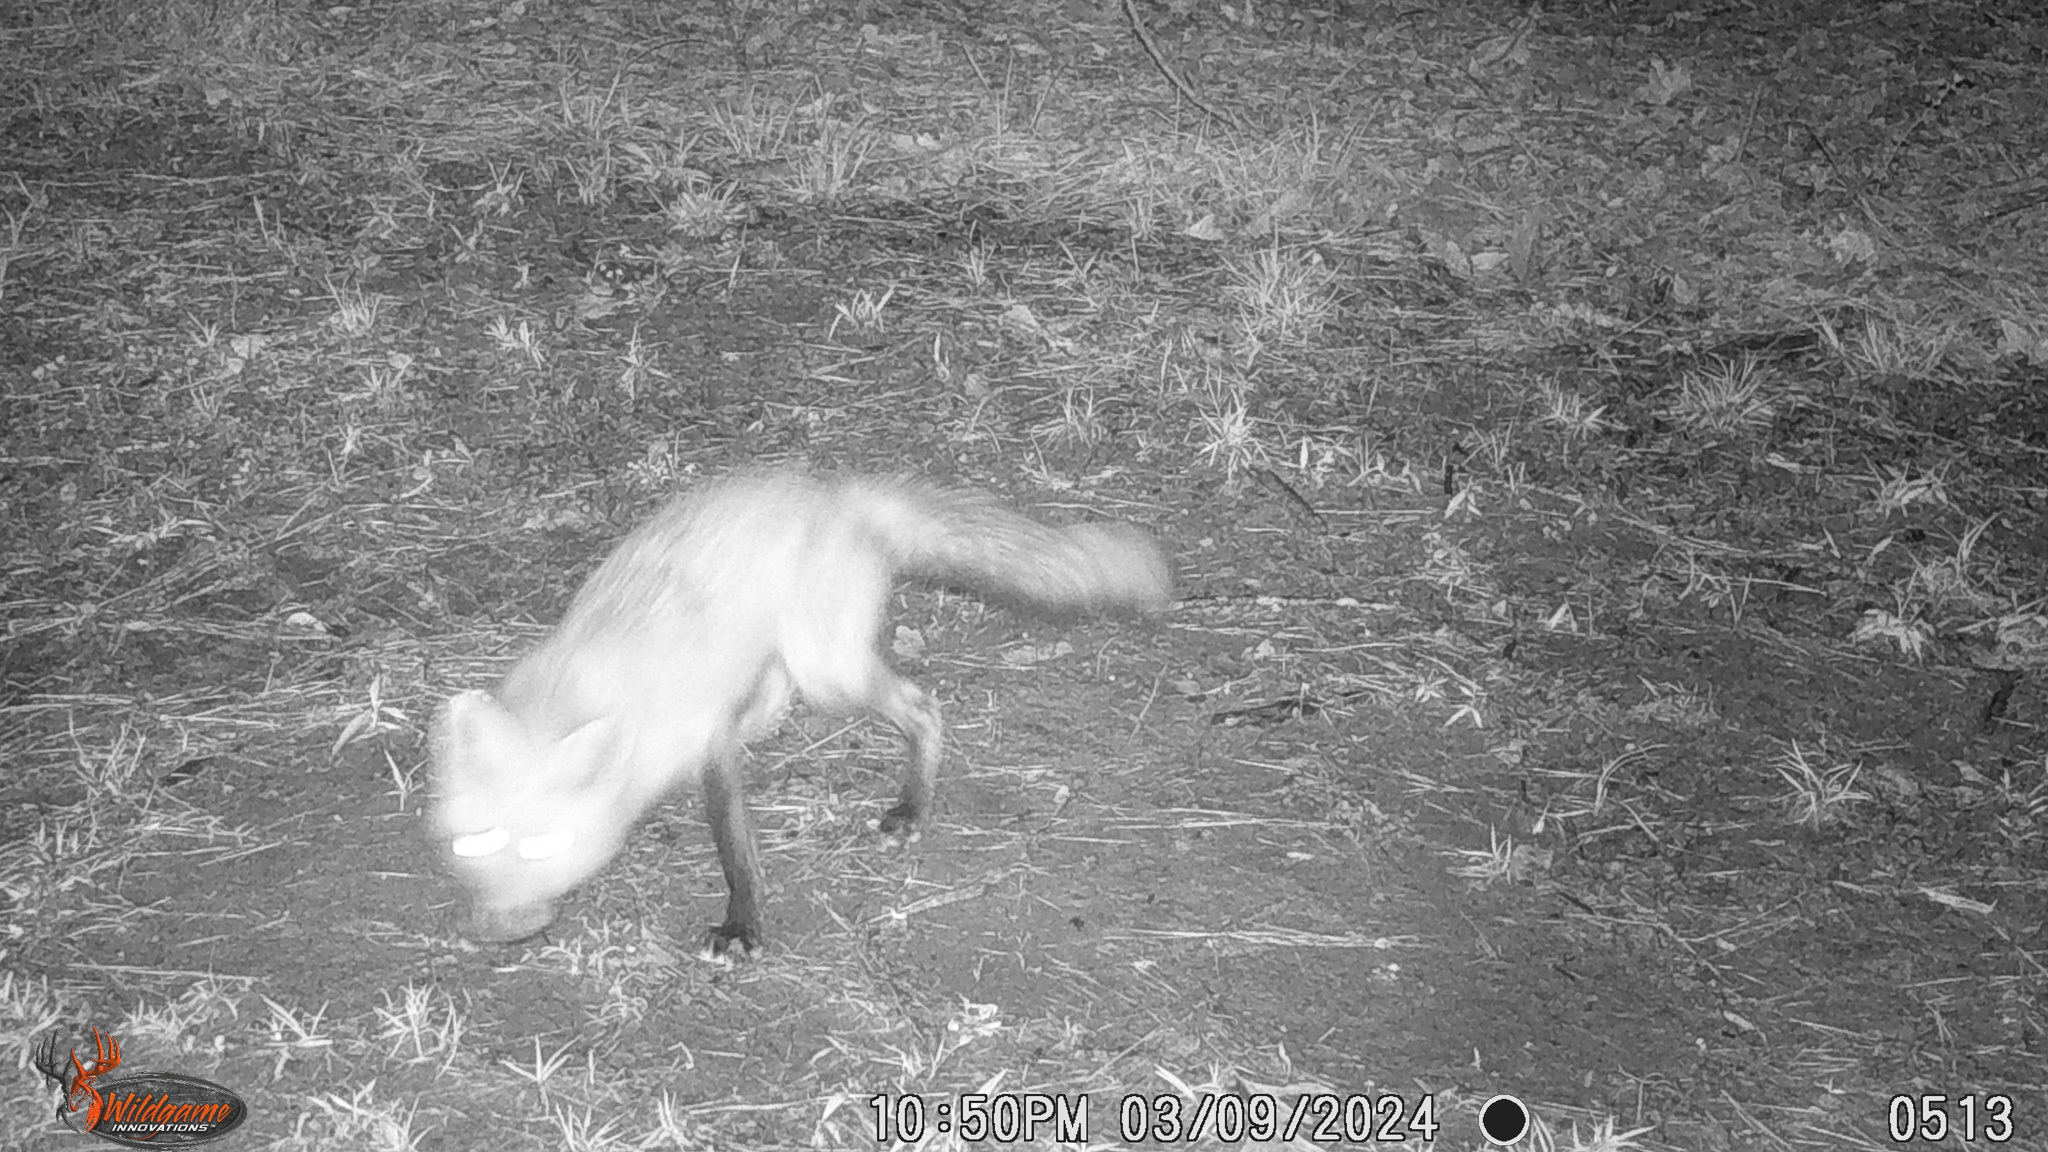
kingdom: Animalia
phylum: Chordata
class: Mammalia
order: Carnivora
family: Canidae
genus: Vulpes
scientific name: Vulpes vulpes
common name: Red fox
